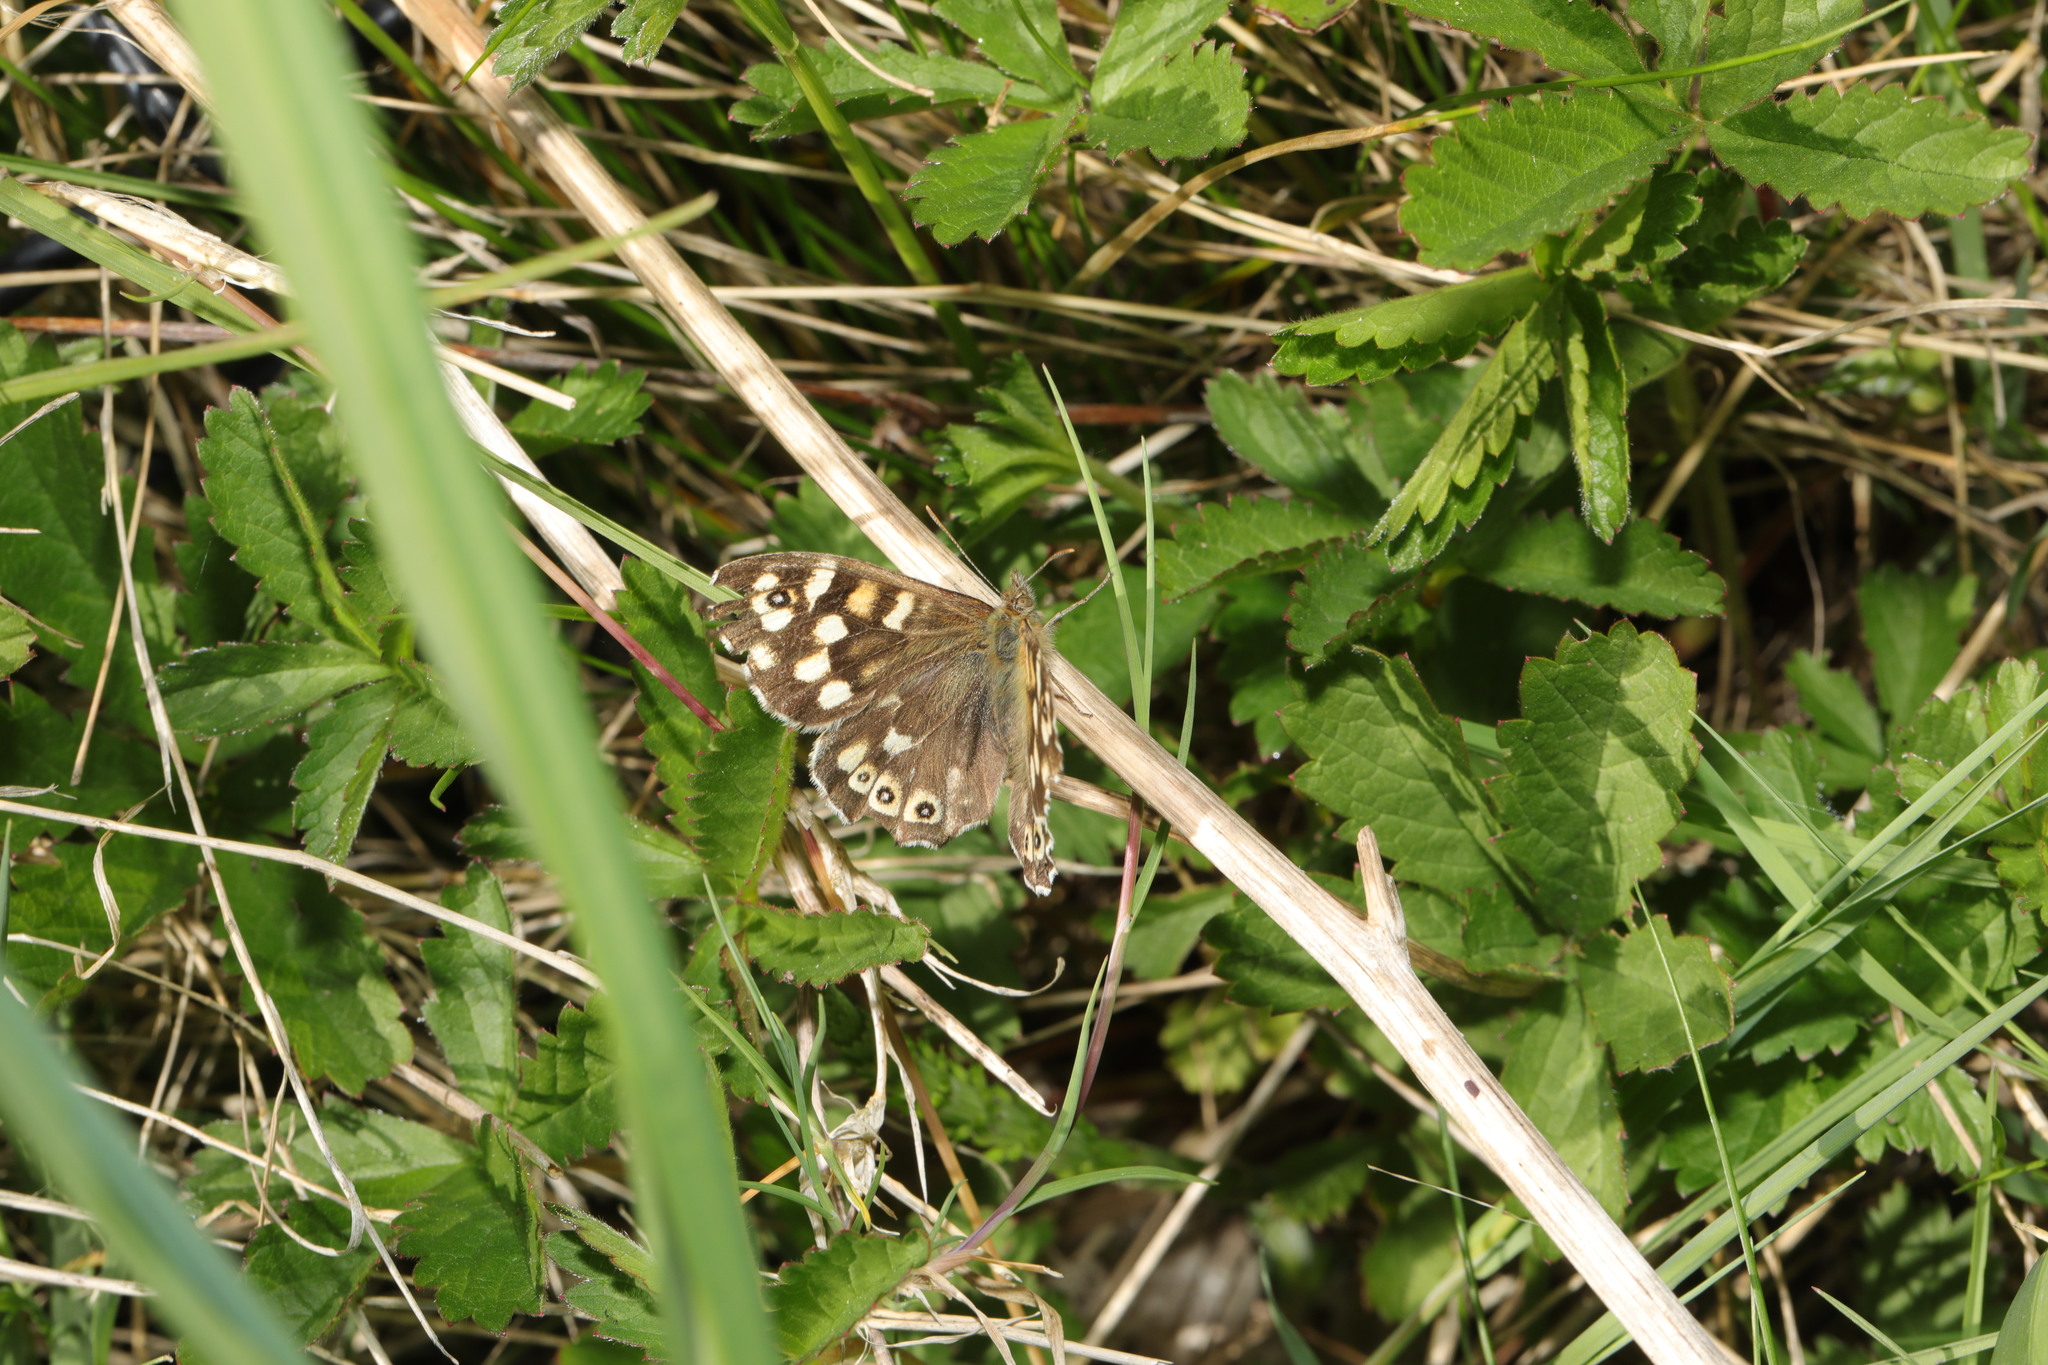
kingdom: Animalia
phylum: Arthropoda
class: Insecta
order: Lepidoptera
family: Nymphalidae
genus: Pararge
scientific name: Pararge aegeria
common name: Speckled wood
